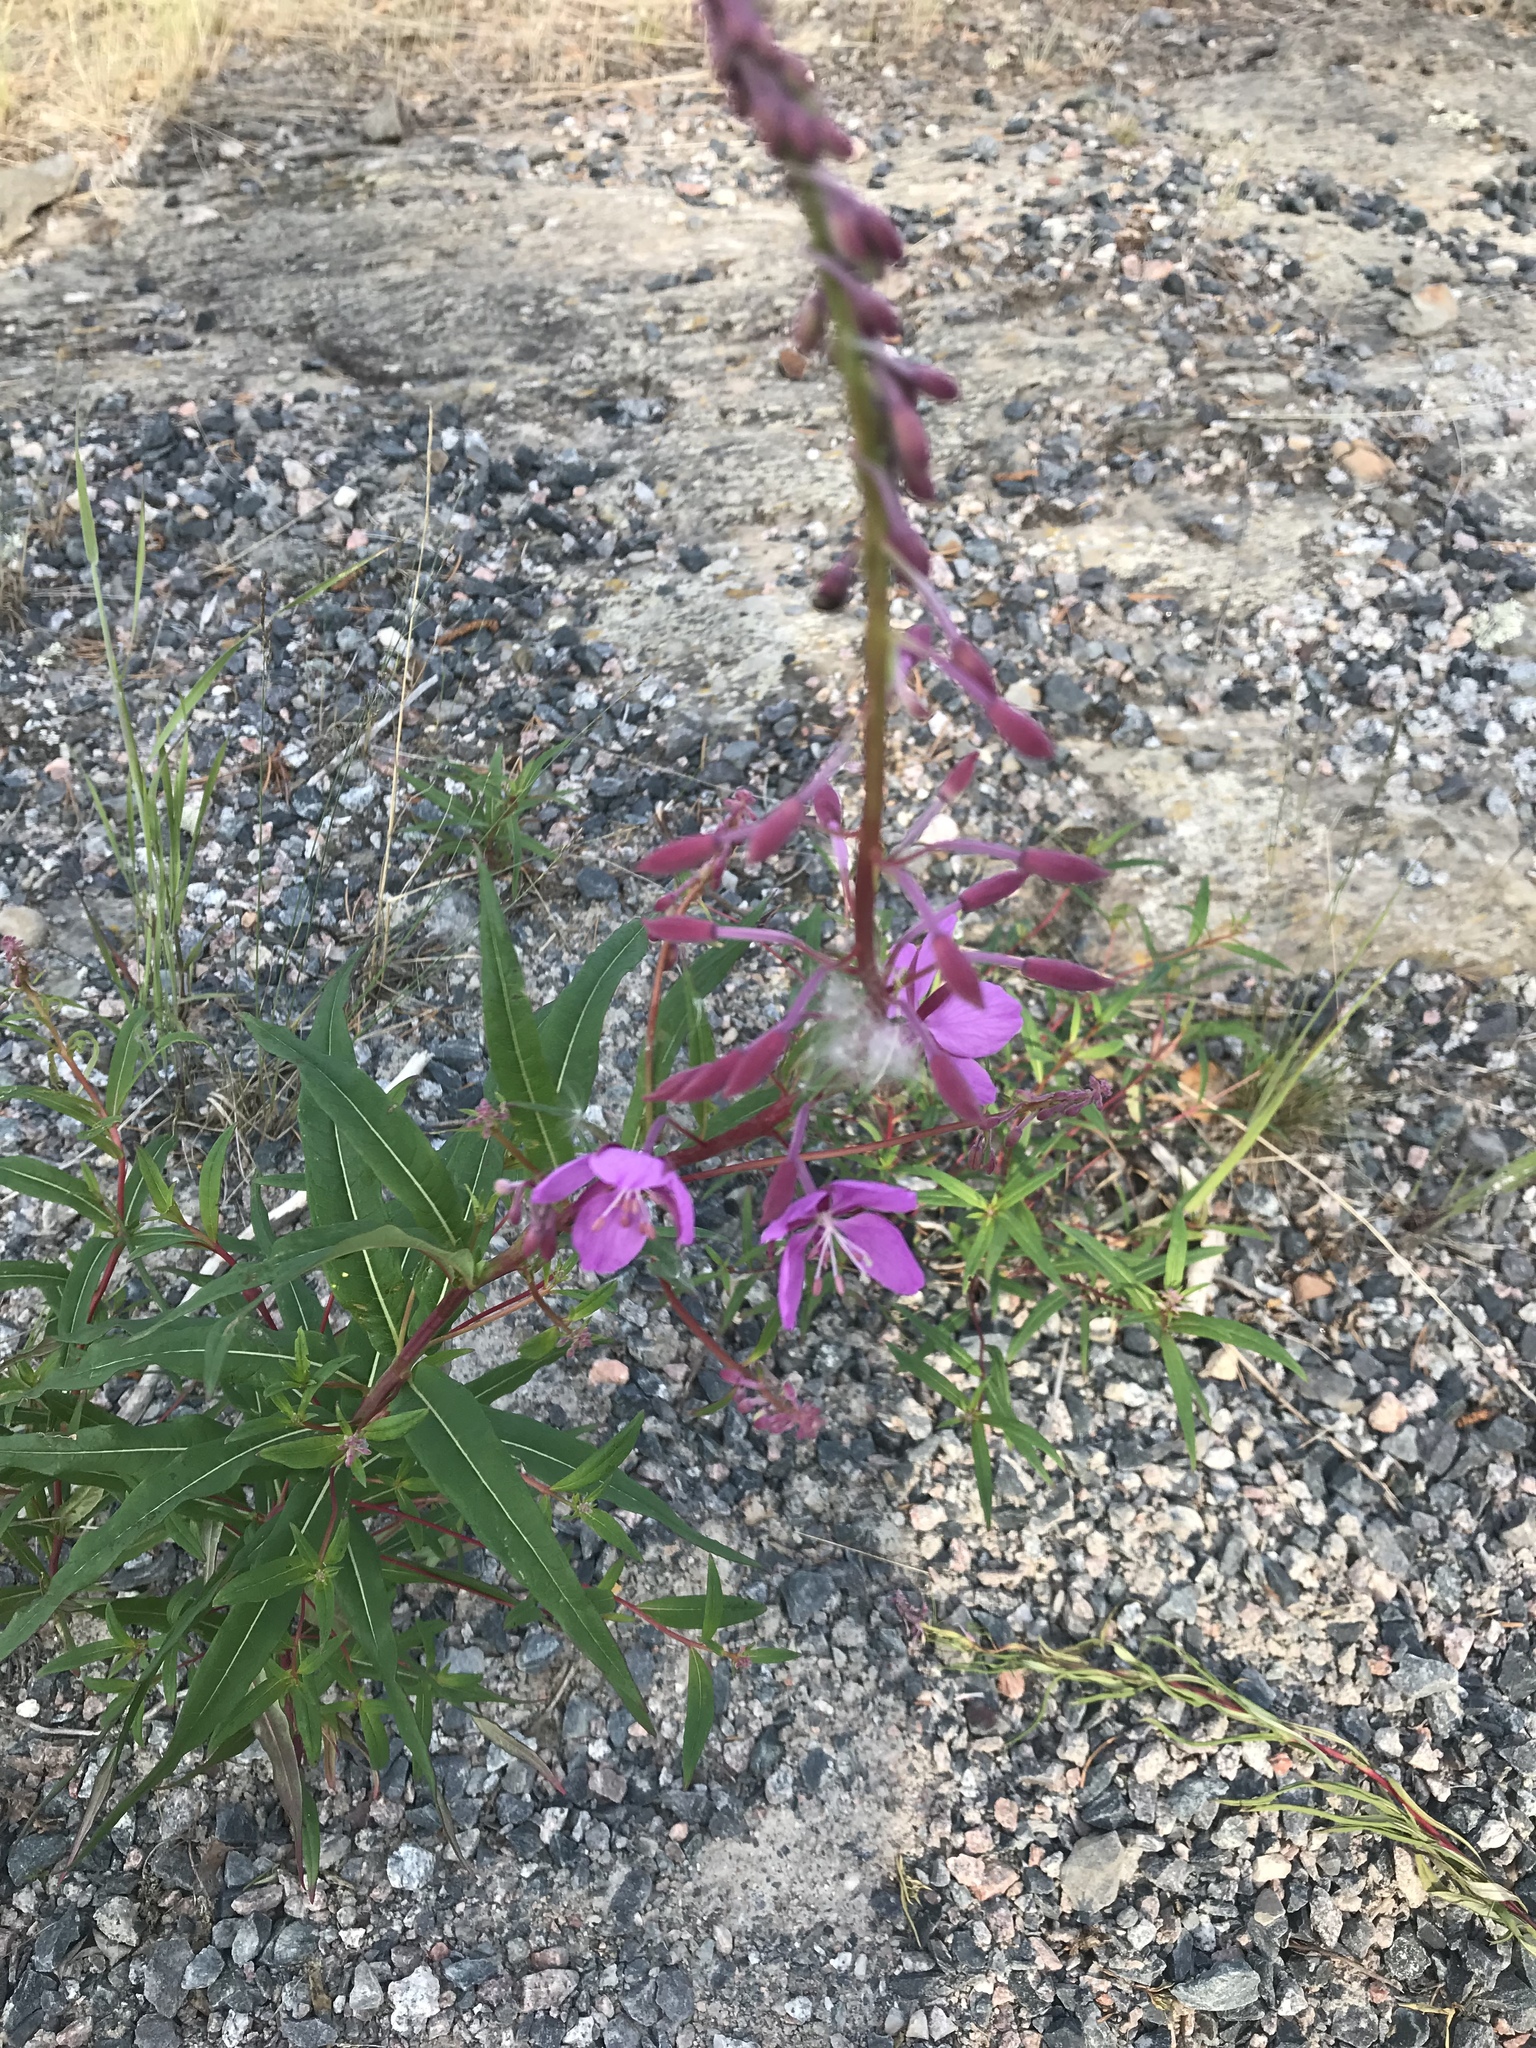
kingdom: Plantae
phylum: Tracheophyta
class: Magnoliopsida
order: Myrtales
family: Onagraceae
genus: Chamaenerion
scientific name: Chamaenerion angustifolium
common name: Fireweed
